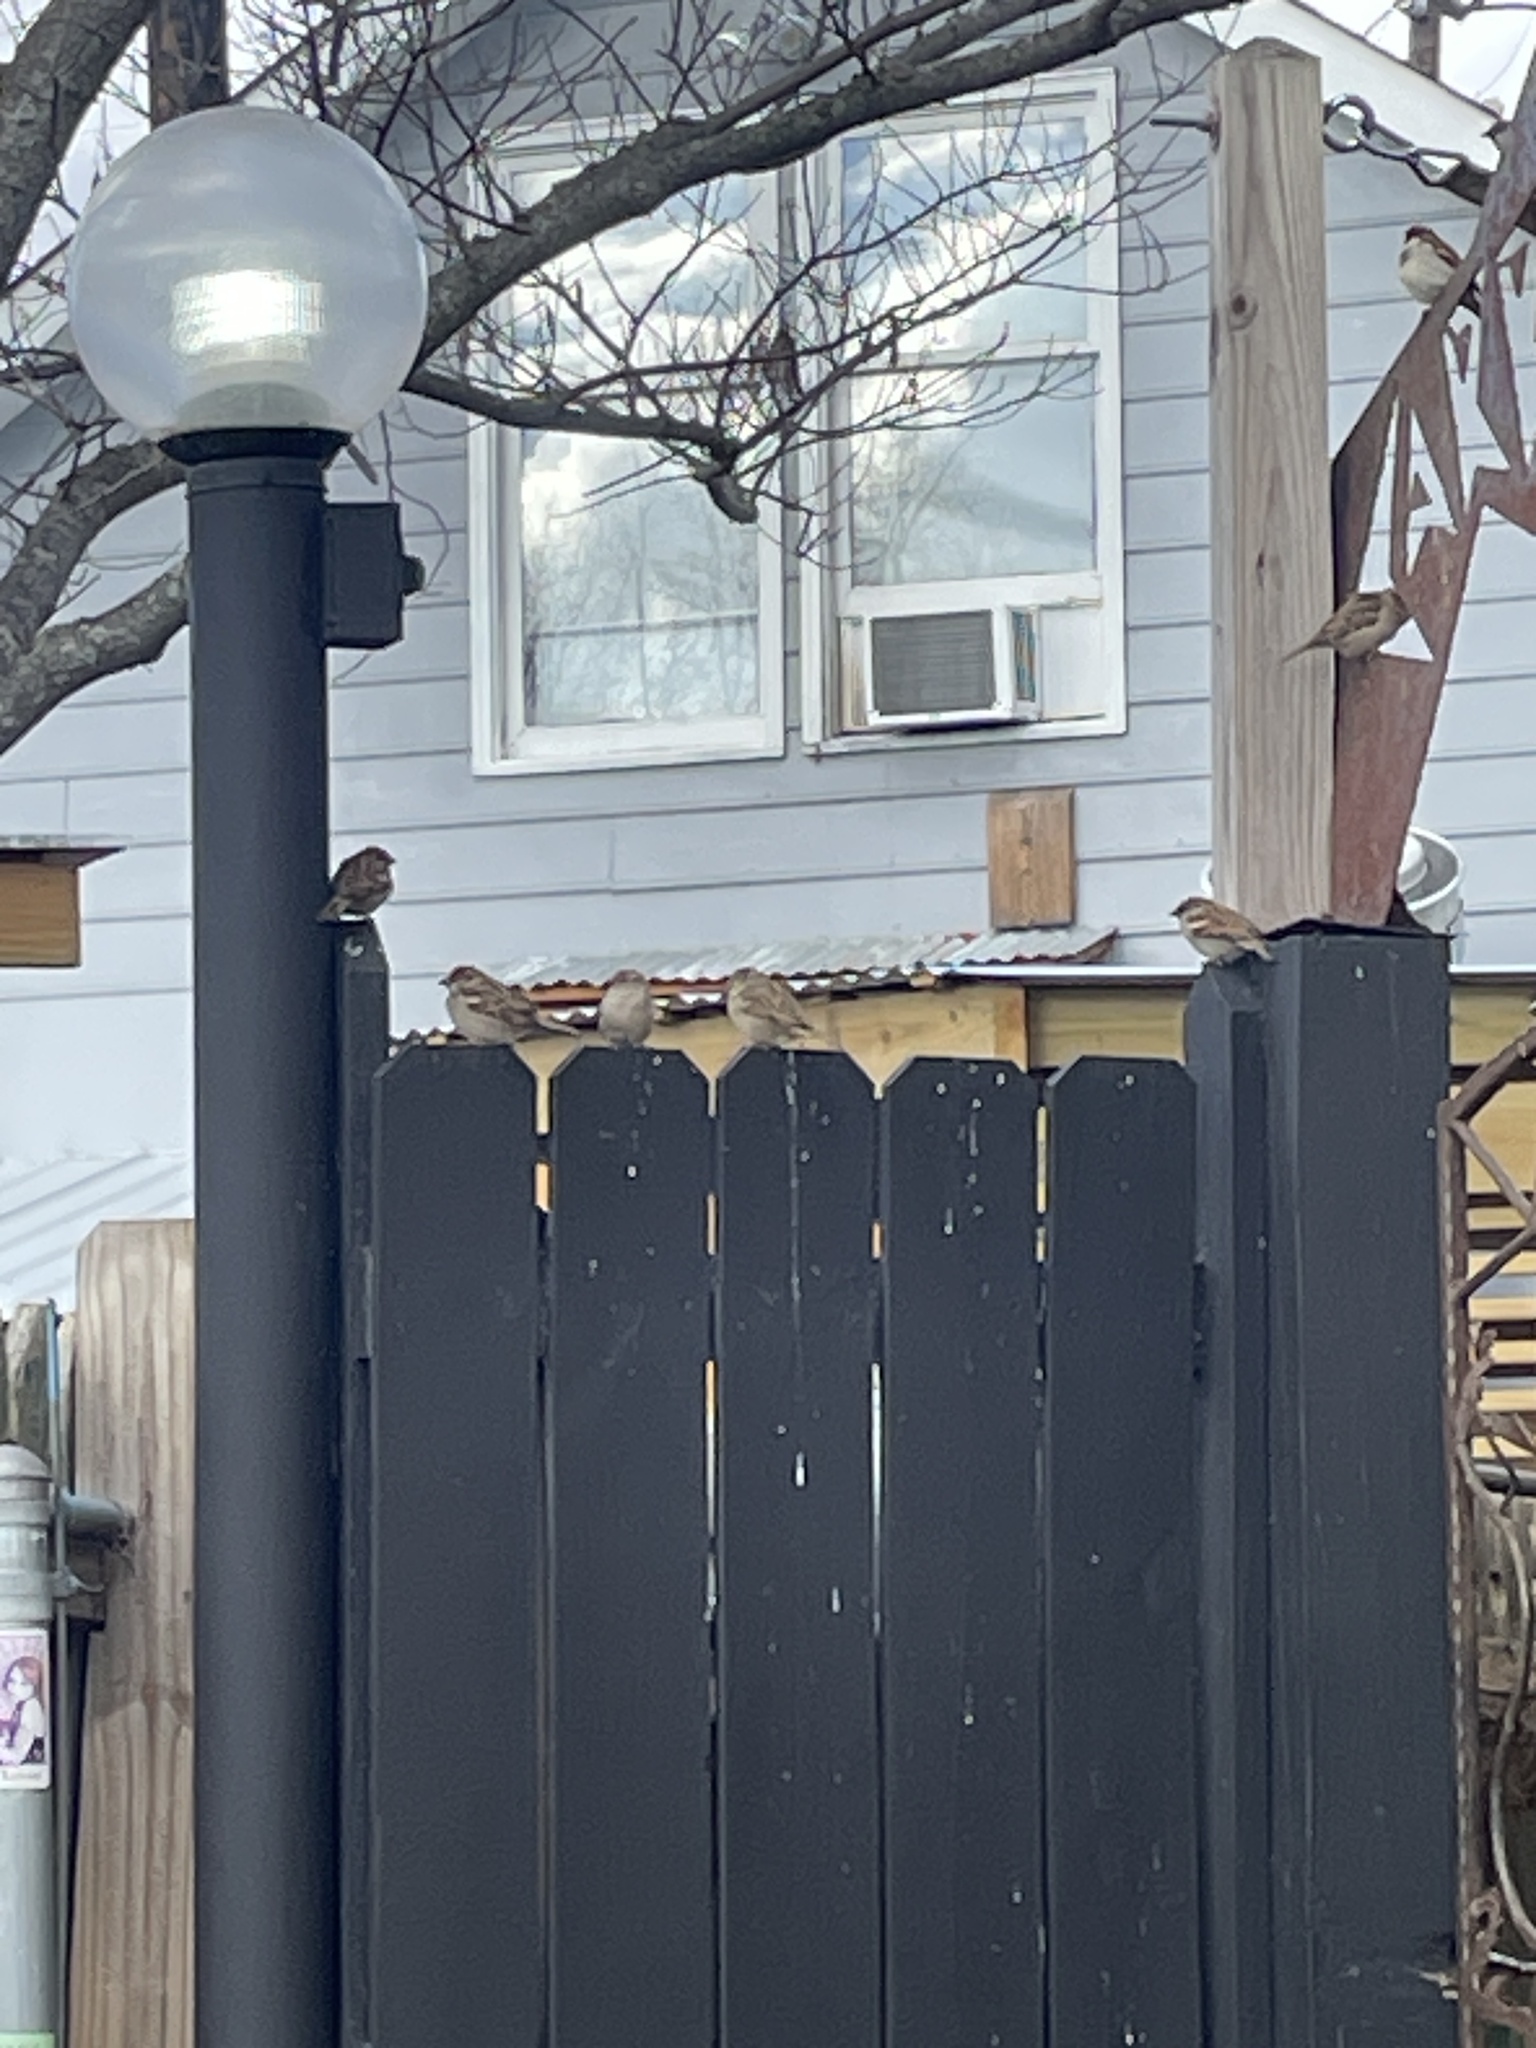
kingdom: Animalia
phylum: Chordata
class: Aves
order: Passeriformes
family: Passeridae
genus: Passer
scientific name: Passer domesticus
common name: House sparrow
